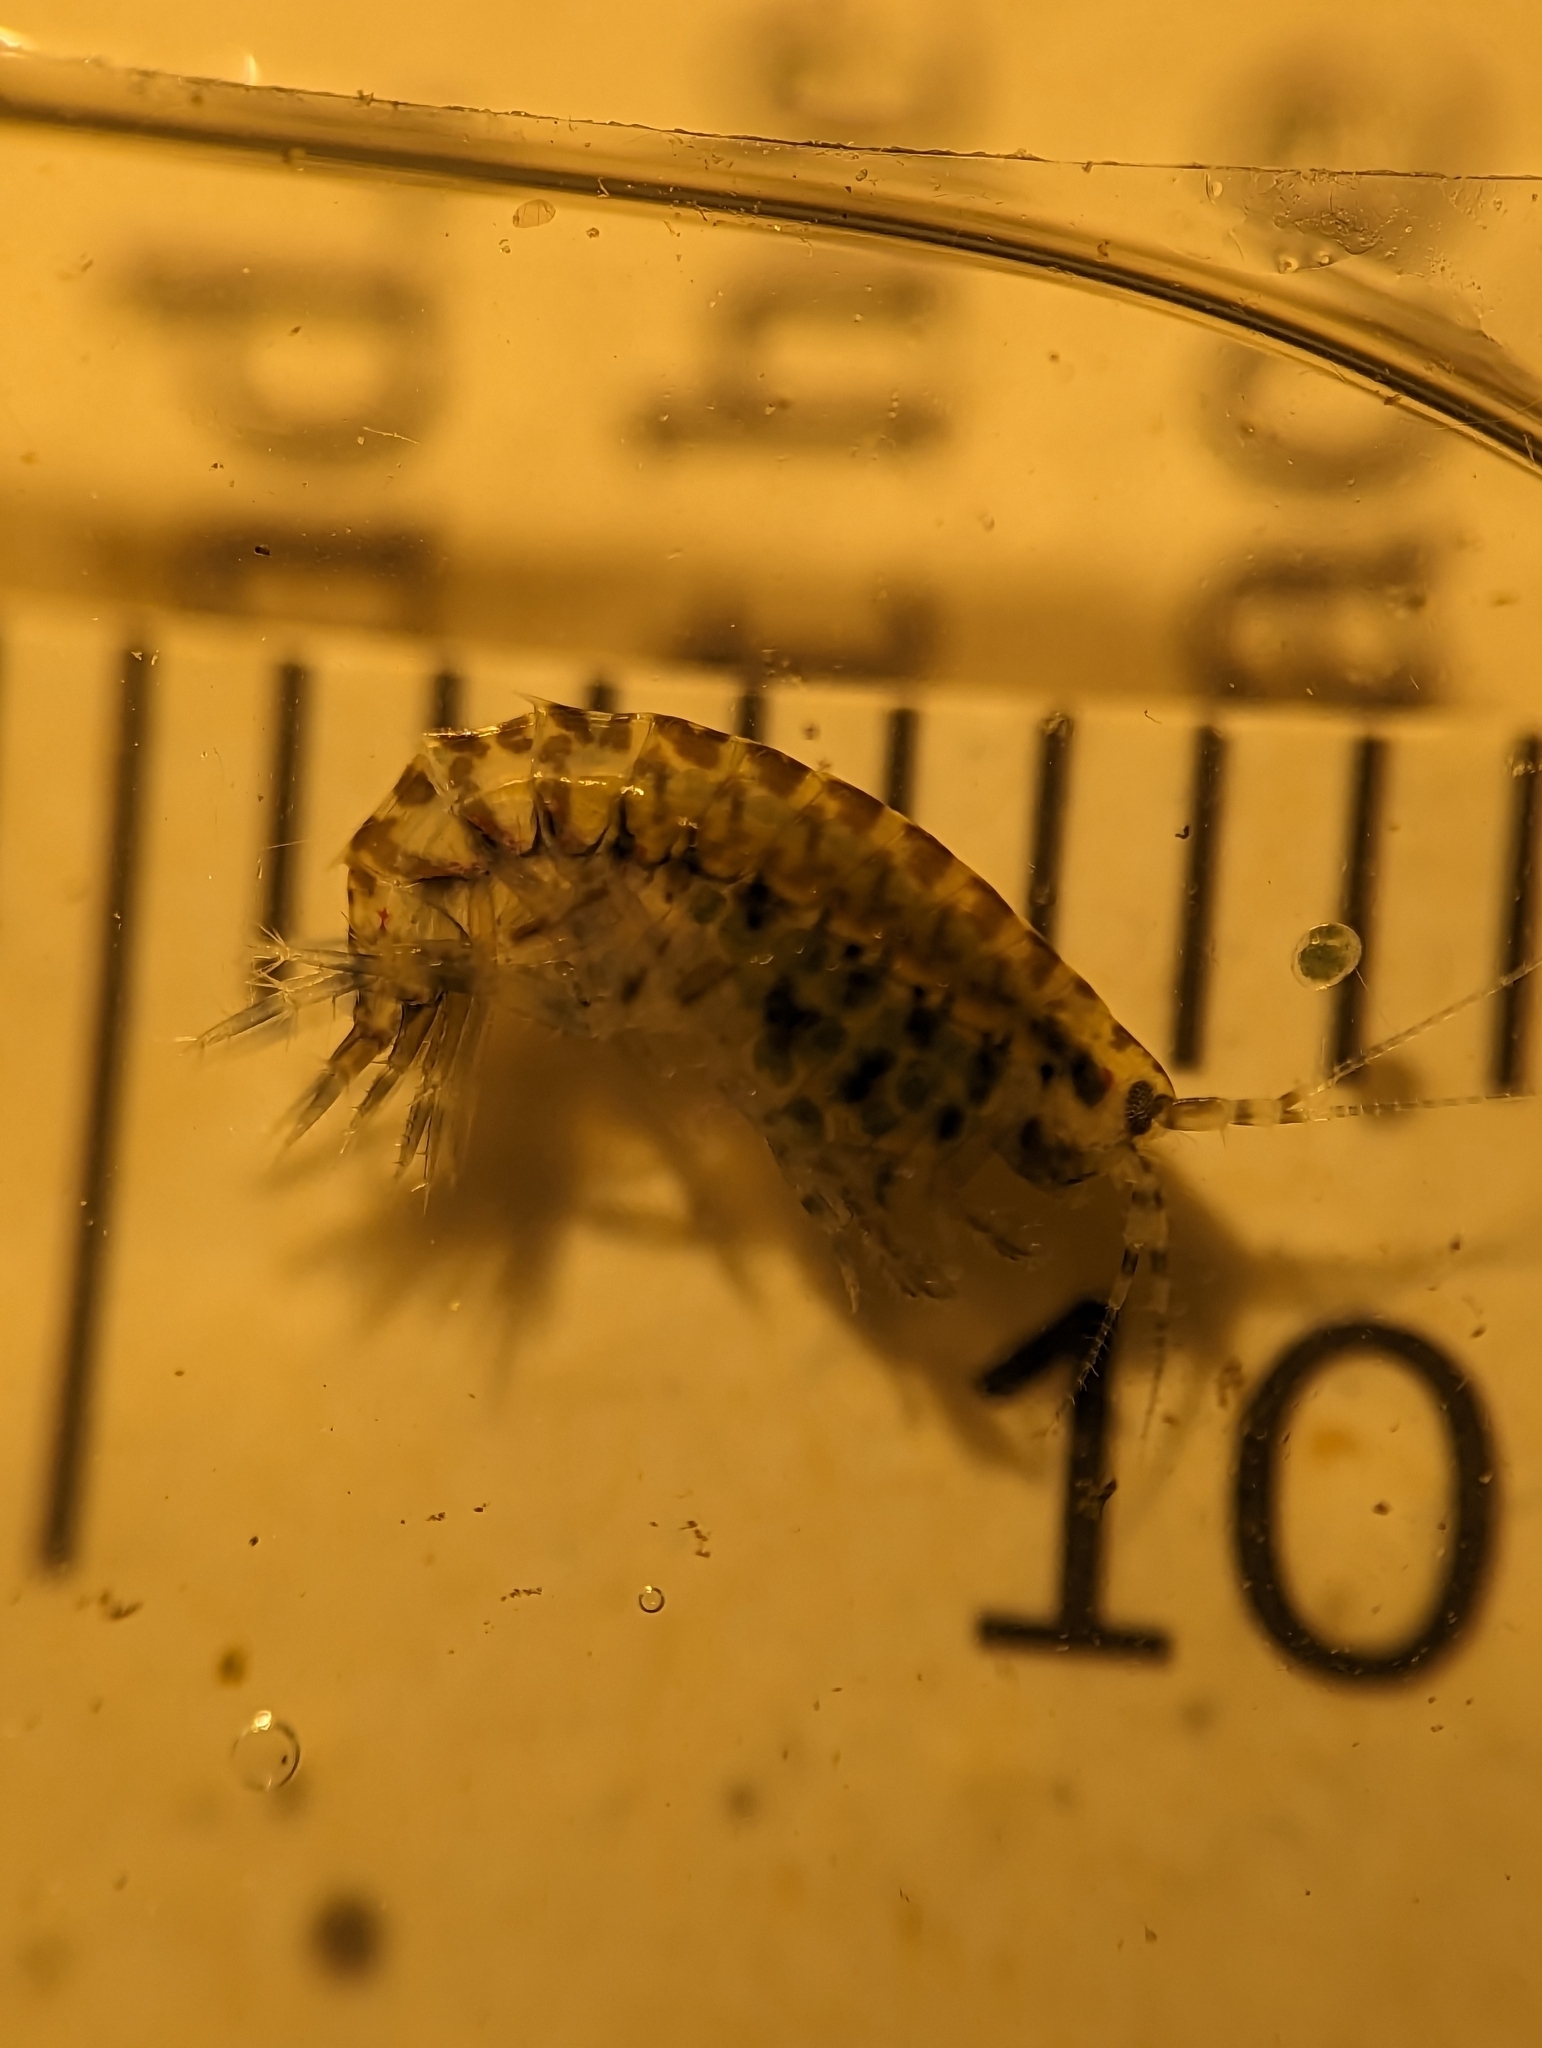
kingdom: Animalia
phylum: Arthropoda
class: Malacostraca
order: Amphipoda
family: Gammaridae
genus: Gammarus
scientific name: Gammarus mucronatus
